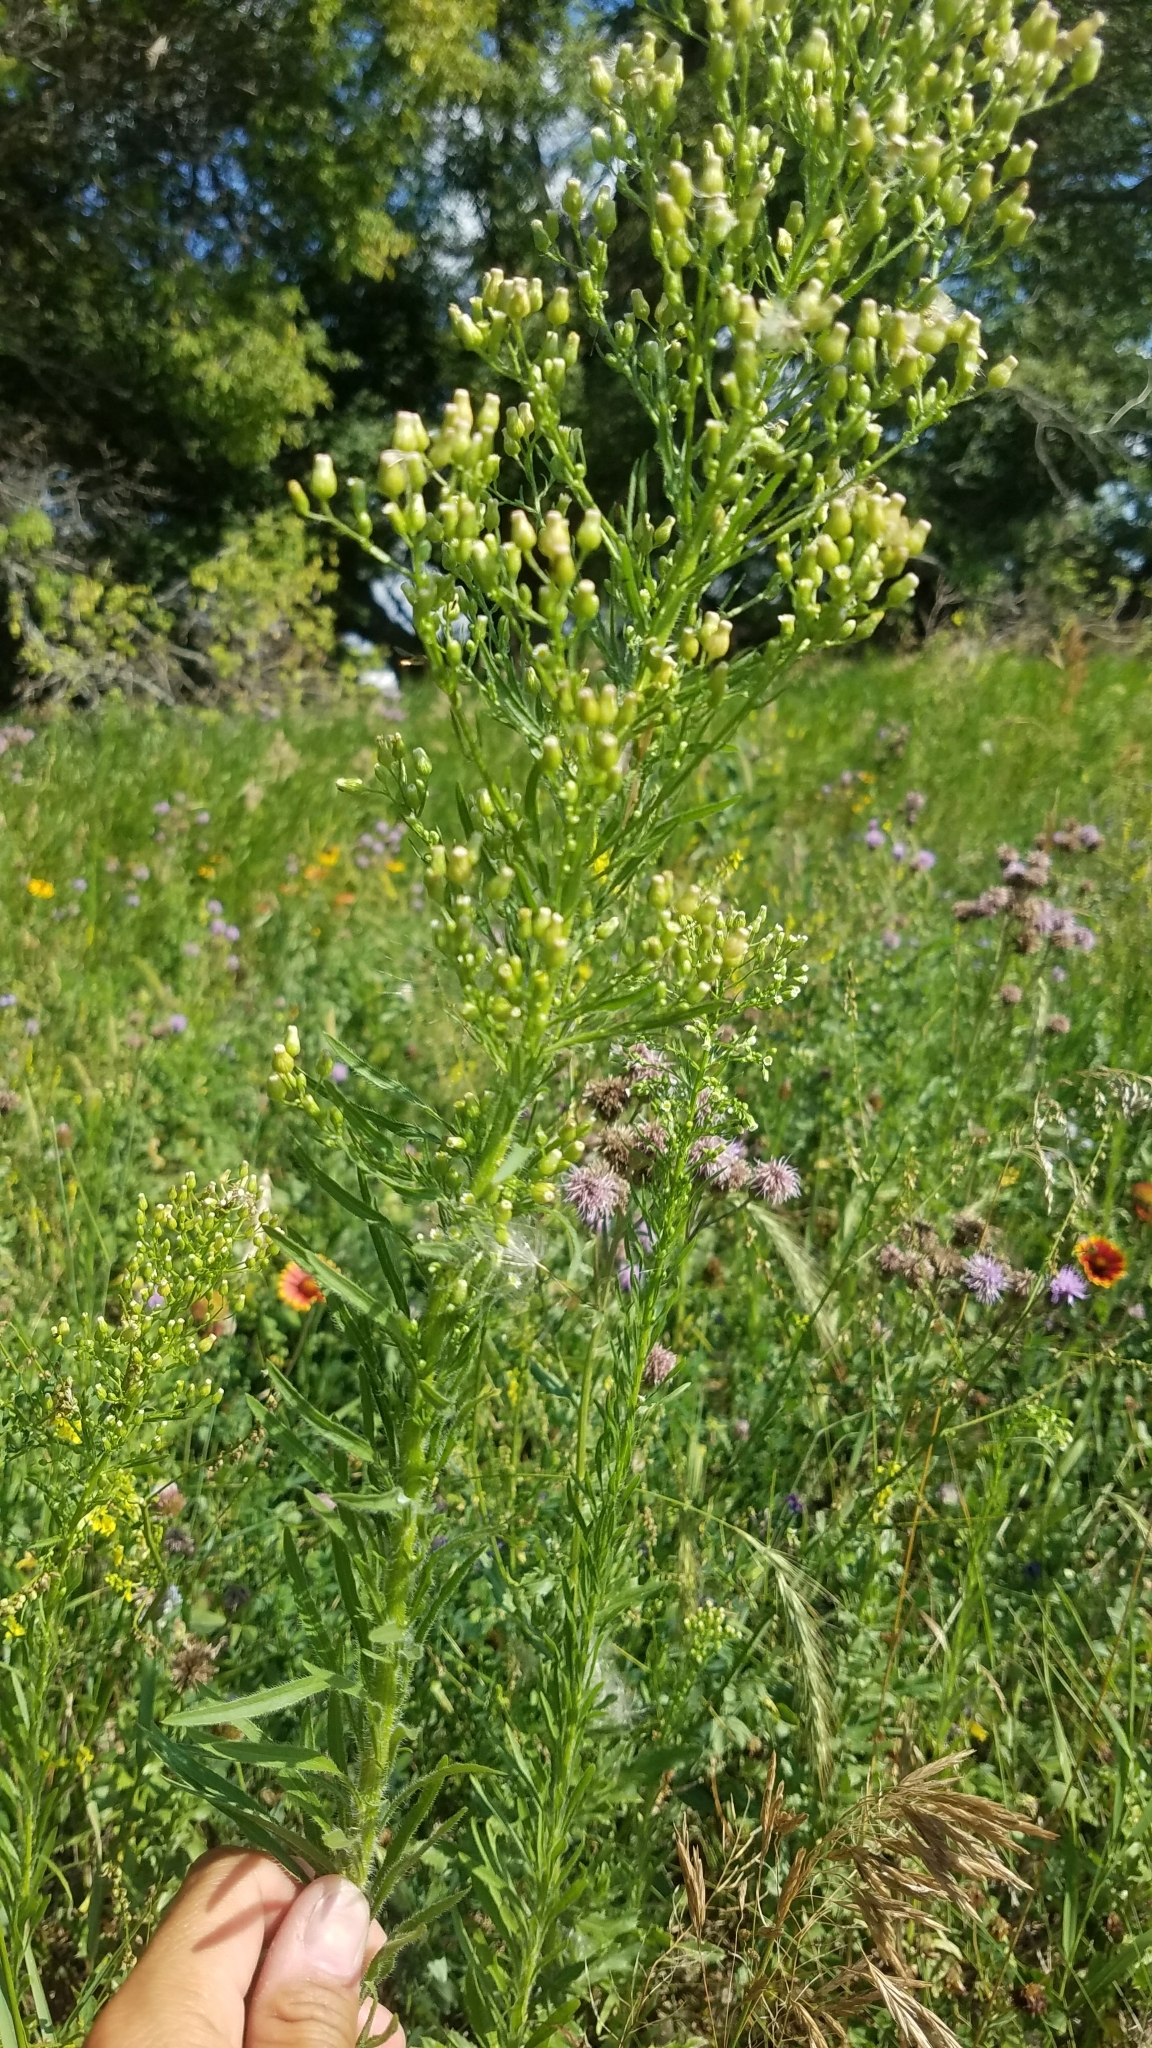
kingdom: Plantae
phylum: Tracheophyta
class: Magnoliopsida
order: Asterales
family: Asteraceae
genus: Erigeron
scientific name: Erigeron canadensis
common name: Canadian fleabane
